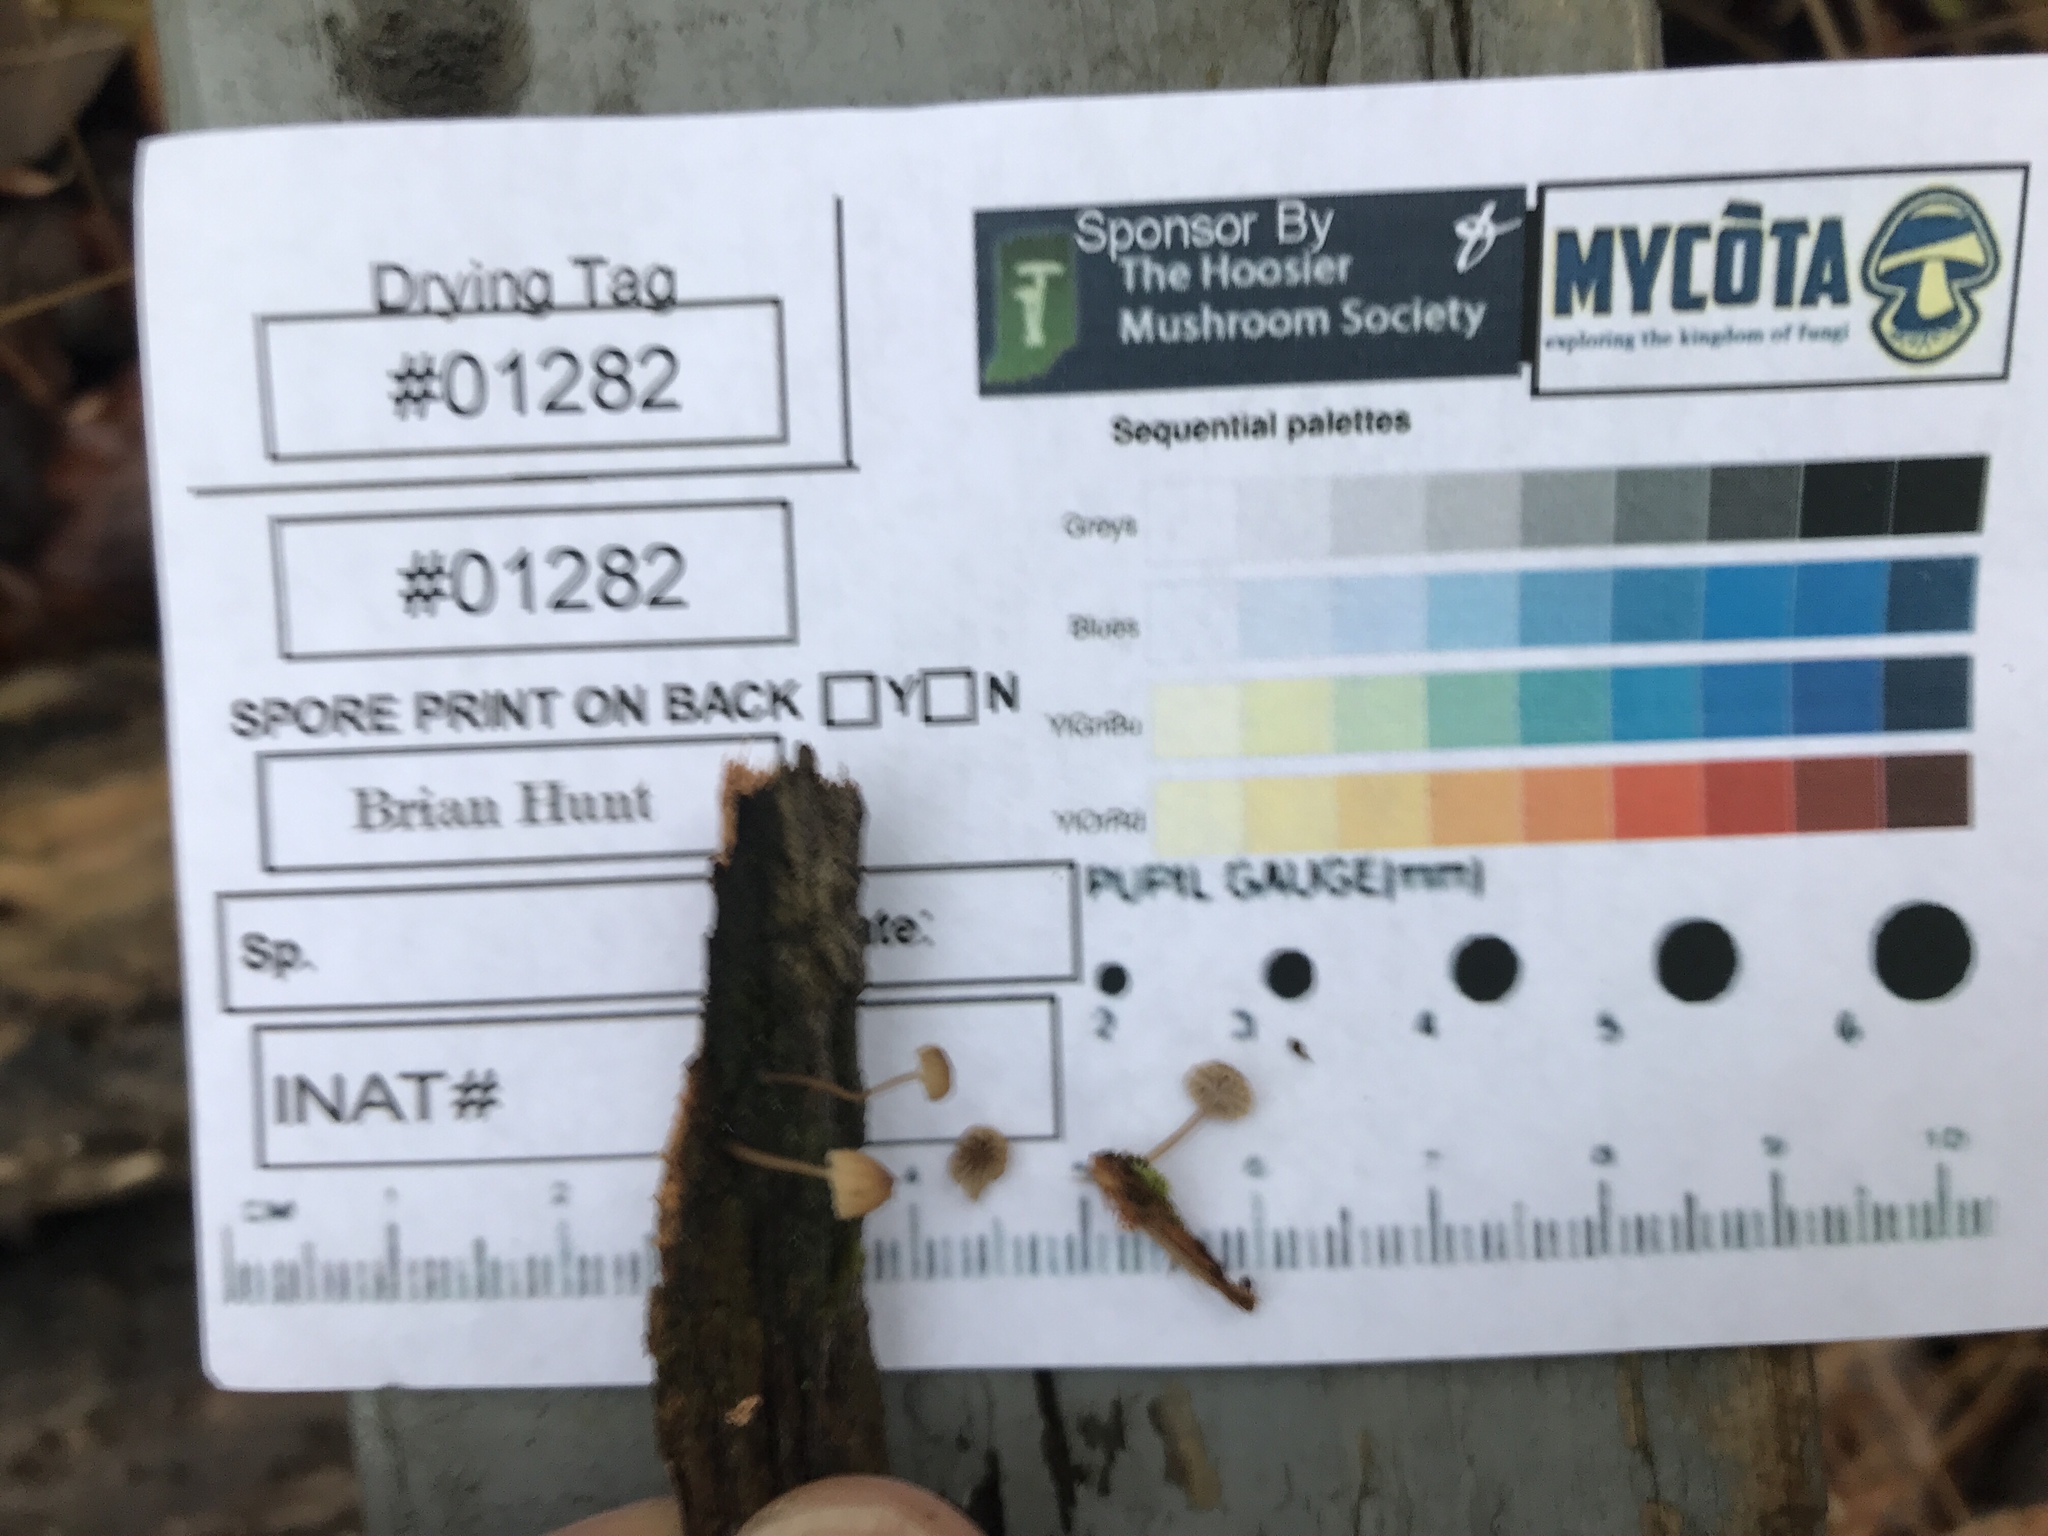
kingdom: Fungi
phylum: Basidiomycota
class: Agaricomycetes
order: Agaricales
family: Mycenaceae
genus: Mycena
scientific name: Mycena meliigena
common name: Mauve bonnet
